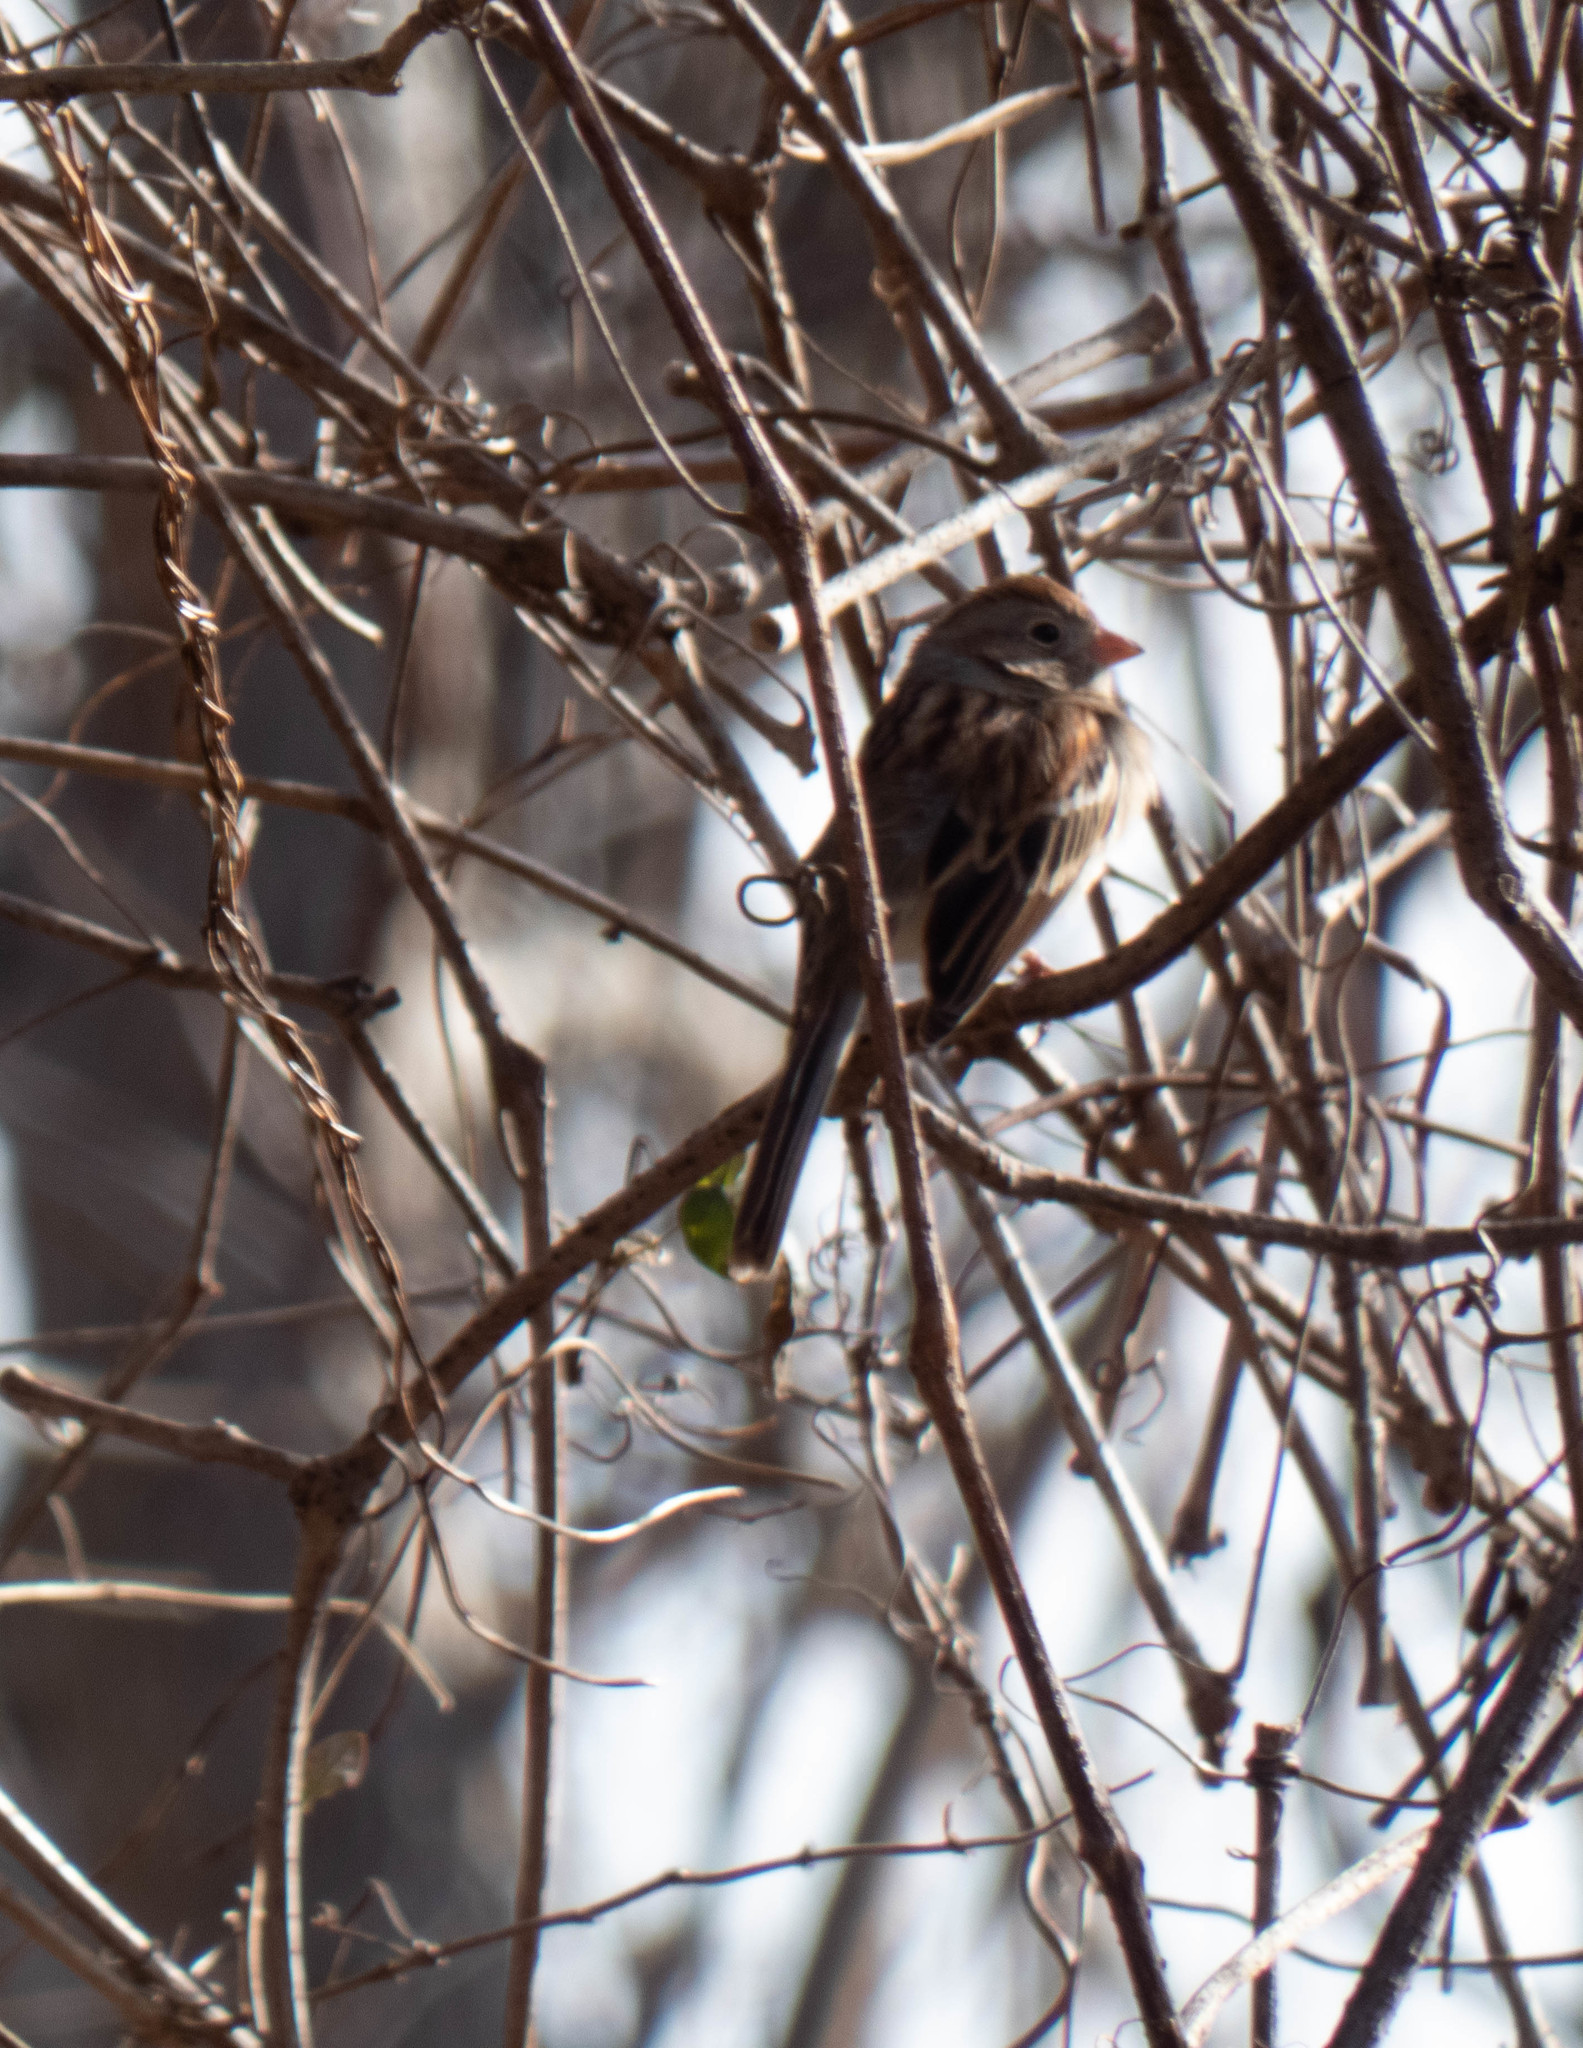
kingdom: Animalia
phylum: Chordata
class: Aves
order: Passeriformes
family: Passerellidae
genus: Spizella
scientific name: Spizella pusilla
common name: Field sparrow
